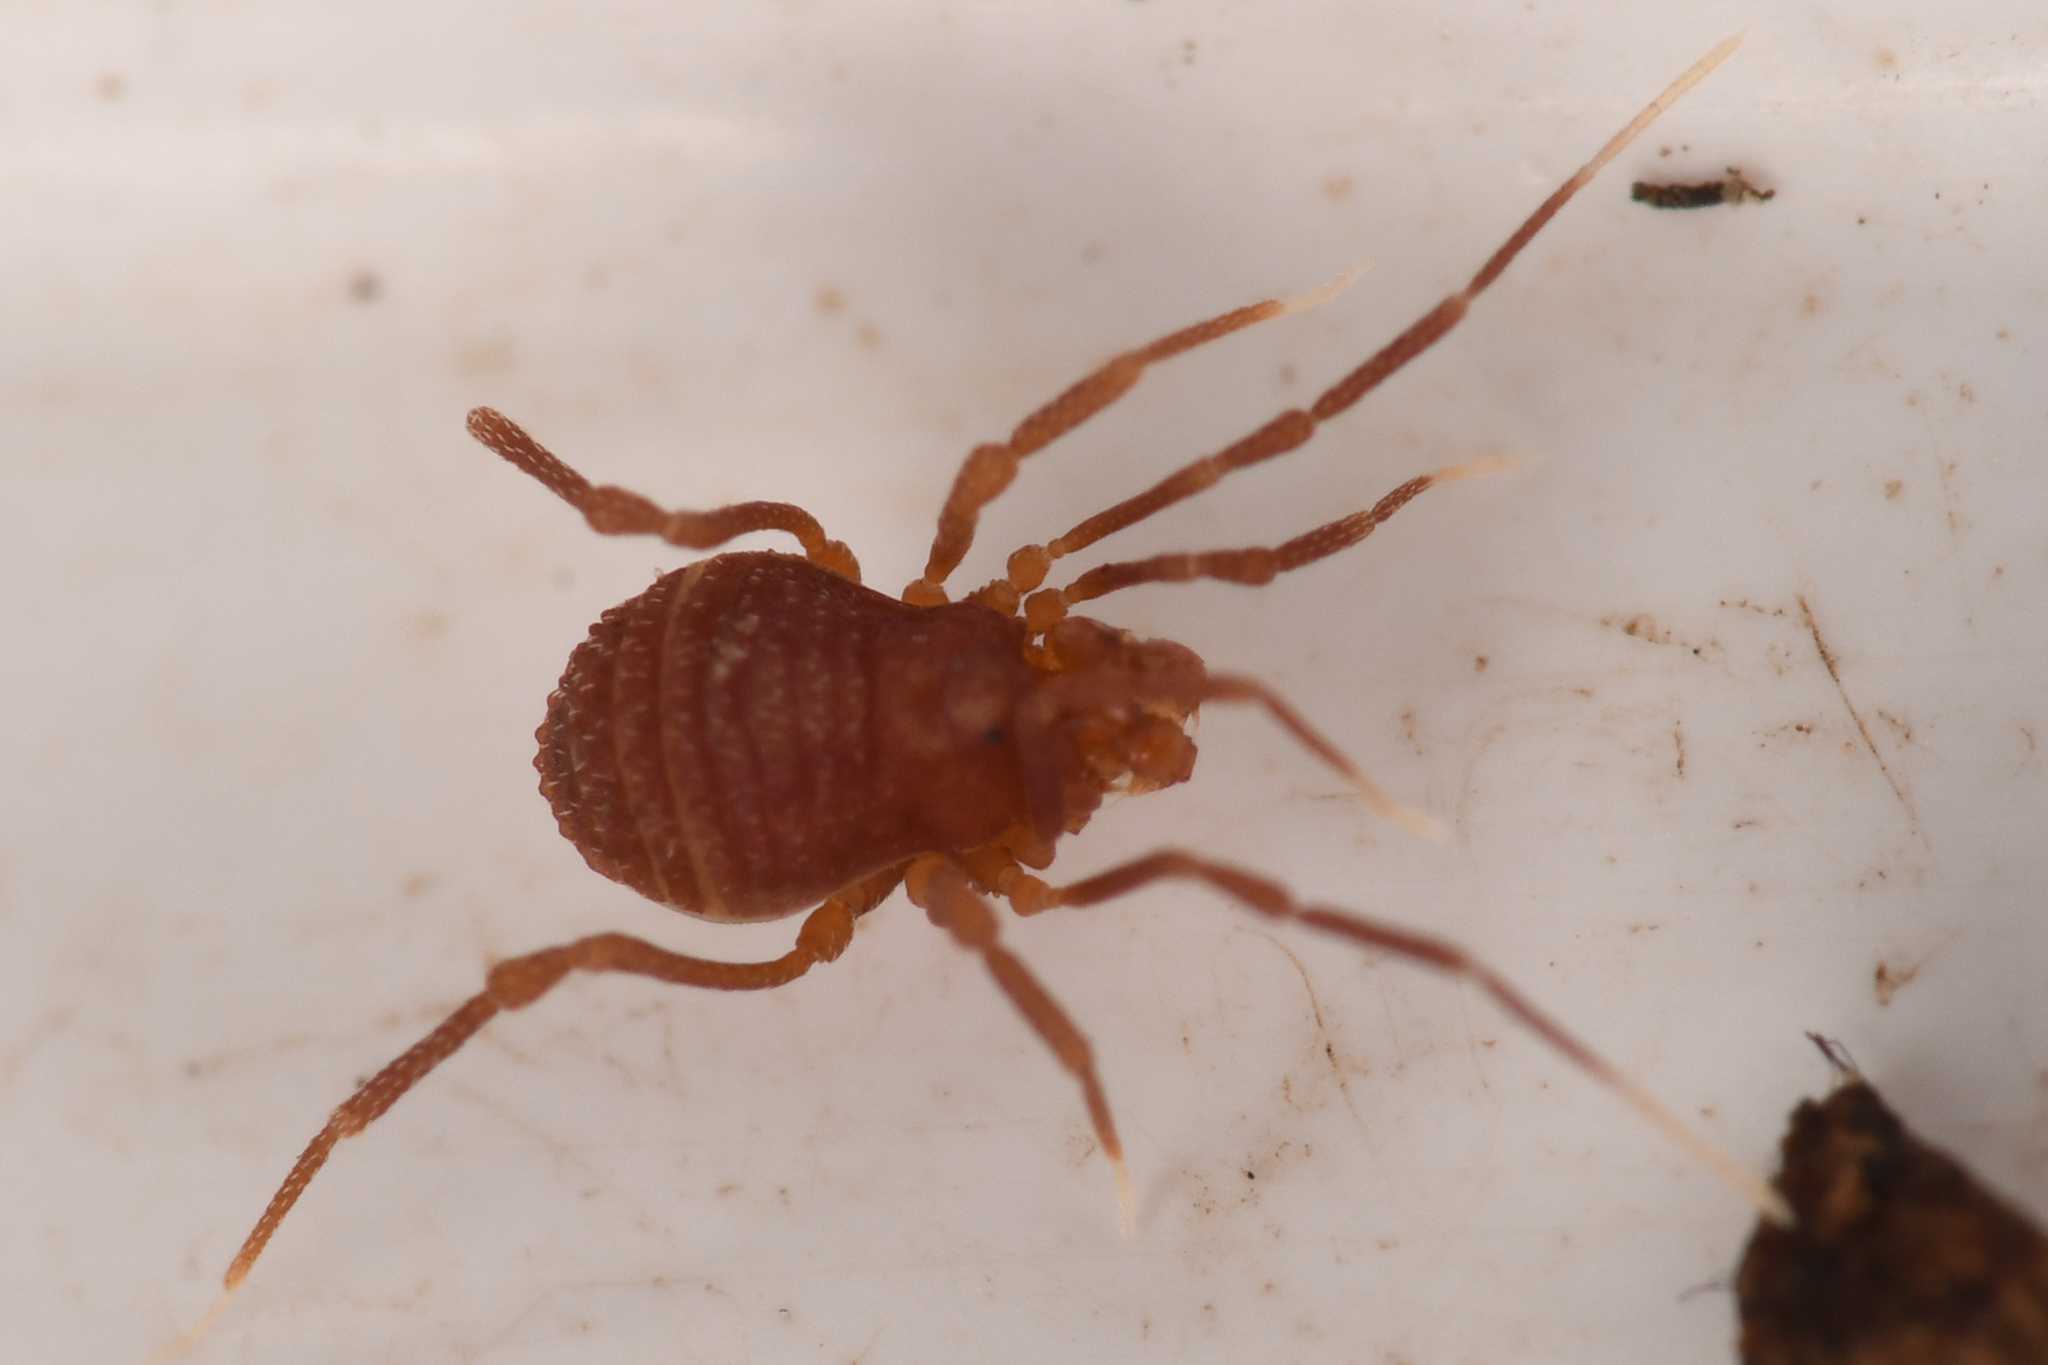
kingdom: Animalia
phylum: Arthropoda
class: Arachnida
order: Opiliones
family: Phalangodidae
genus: Sitalcina
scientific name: Sitalcina californica
